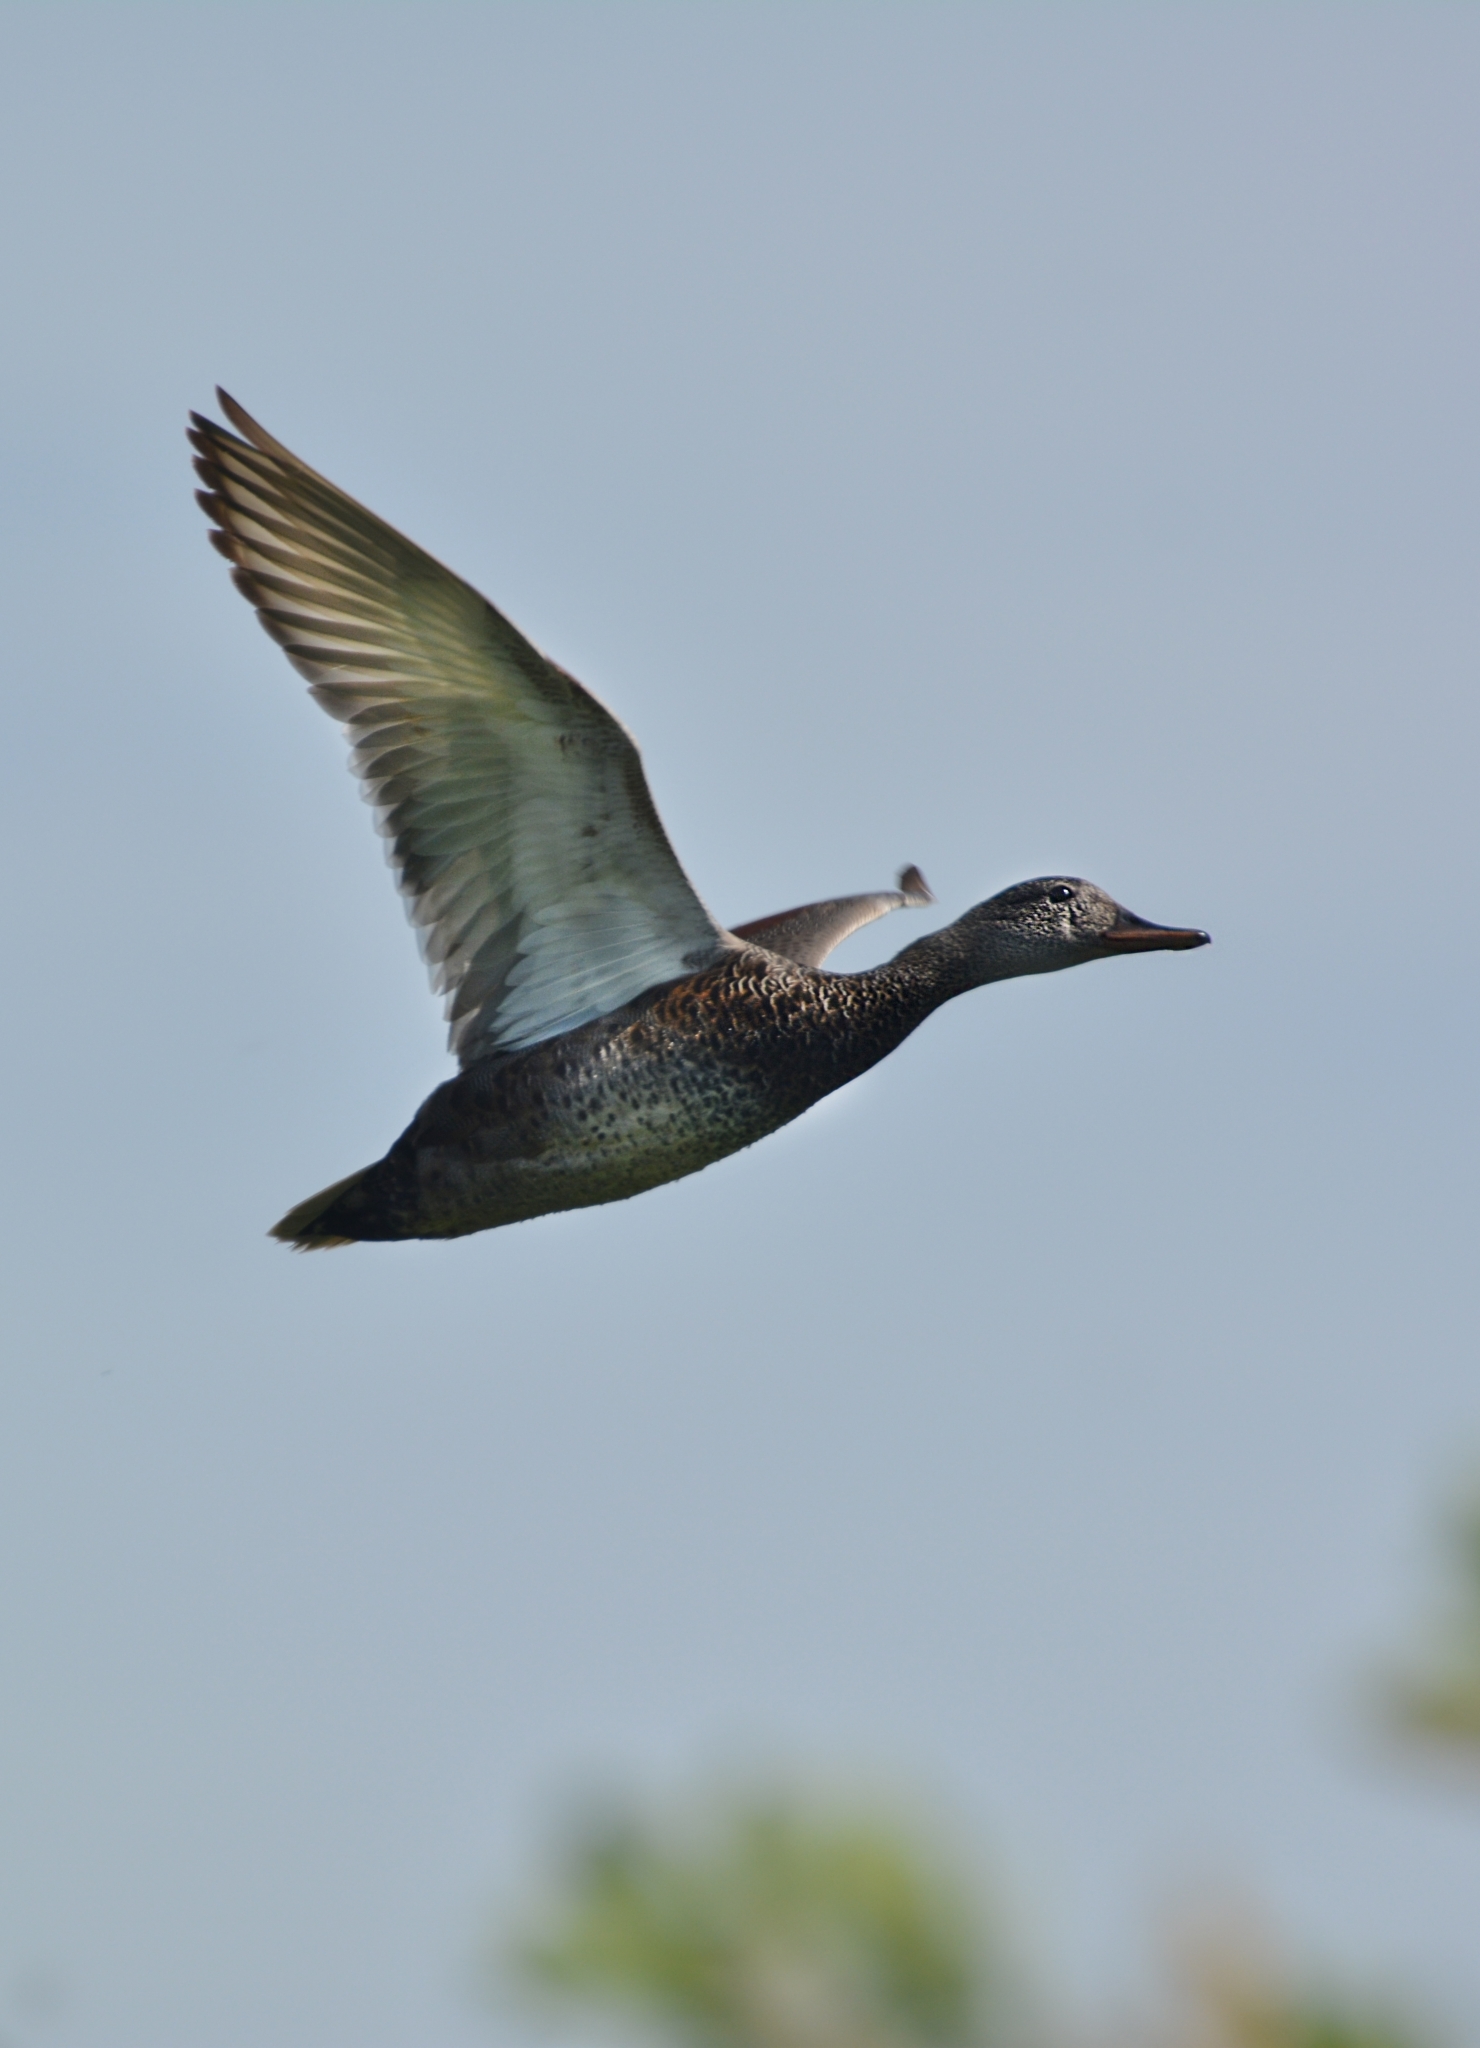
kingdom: Animalia
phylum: Chordata
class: Aves
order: Anseriformes
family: Anatidae
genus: Mareca
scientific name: Mareca strepera
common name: Gadwall
